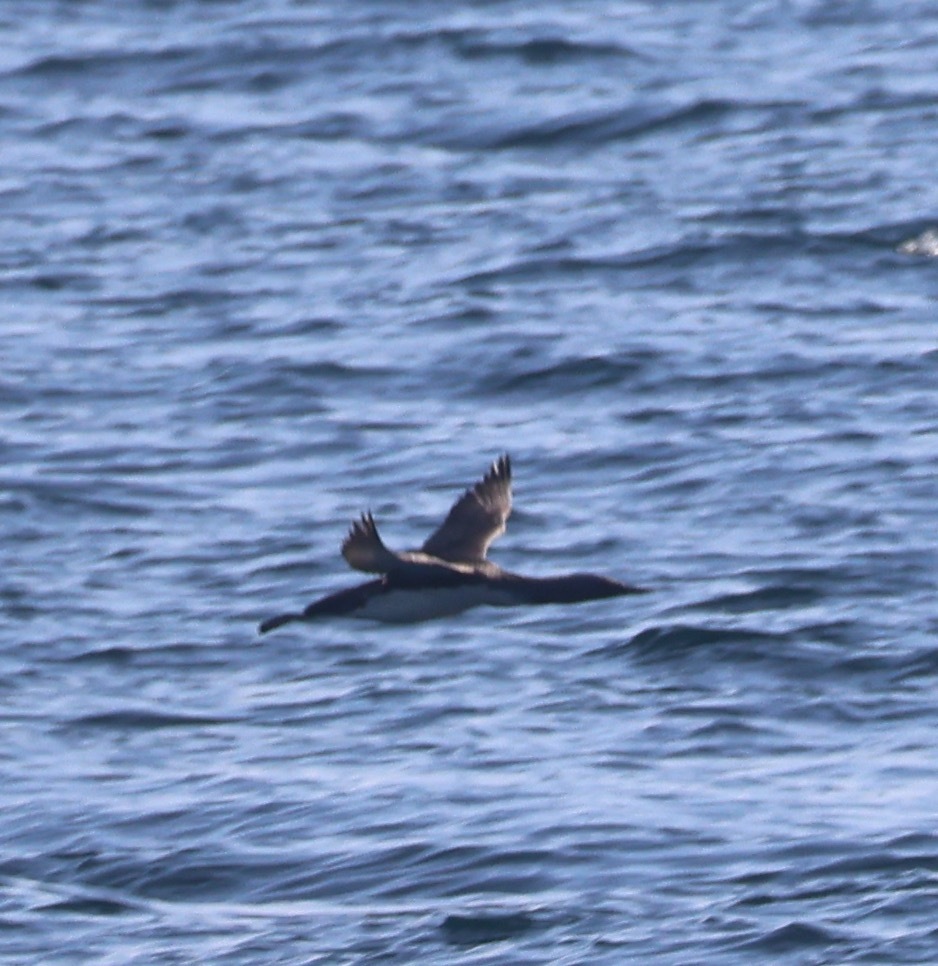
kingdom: Animalia
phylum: Chordata
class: Aves
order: Gaviiformes
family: Gaviidae
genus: Gavia
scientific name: Gavia stellata
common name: Red-throated loon
